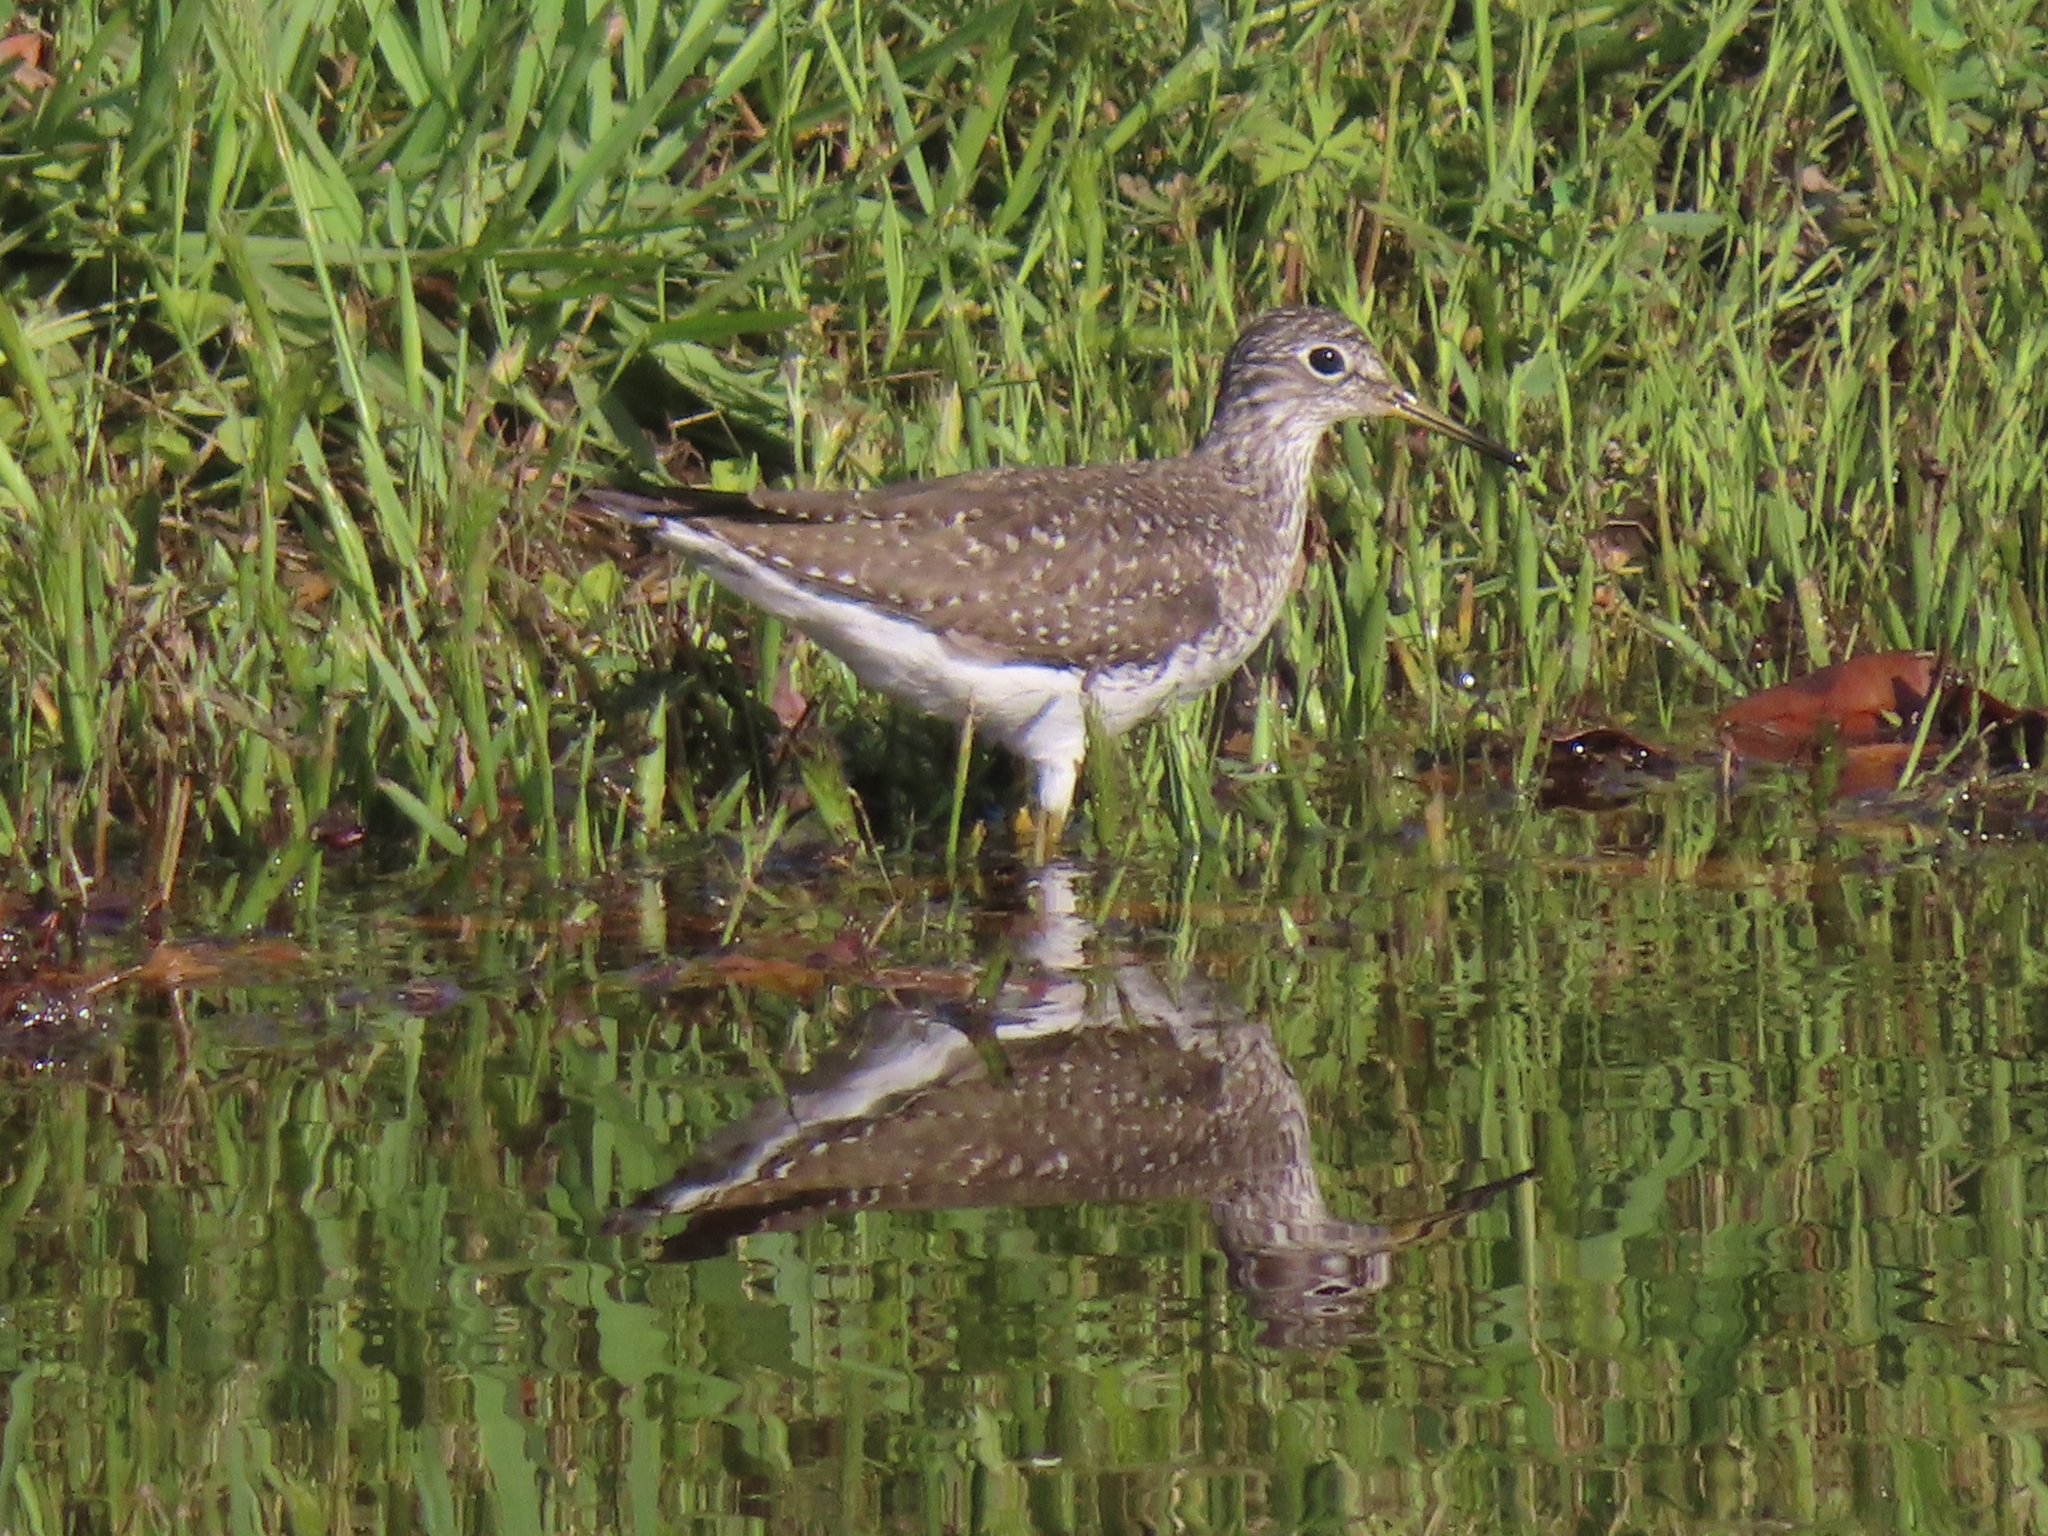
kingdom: Animalia
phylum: Chordata
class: Aves
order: Charadriiformes
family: Scolopacidae
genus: Tringa
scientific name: Tringa solitaria
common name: Solitary sandpiper
